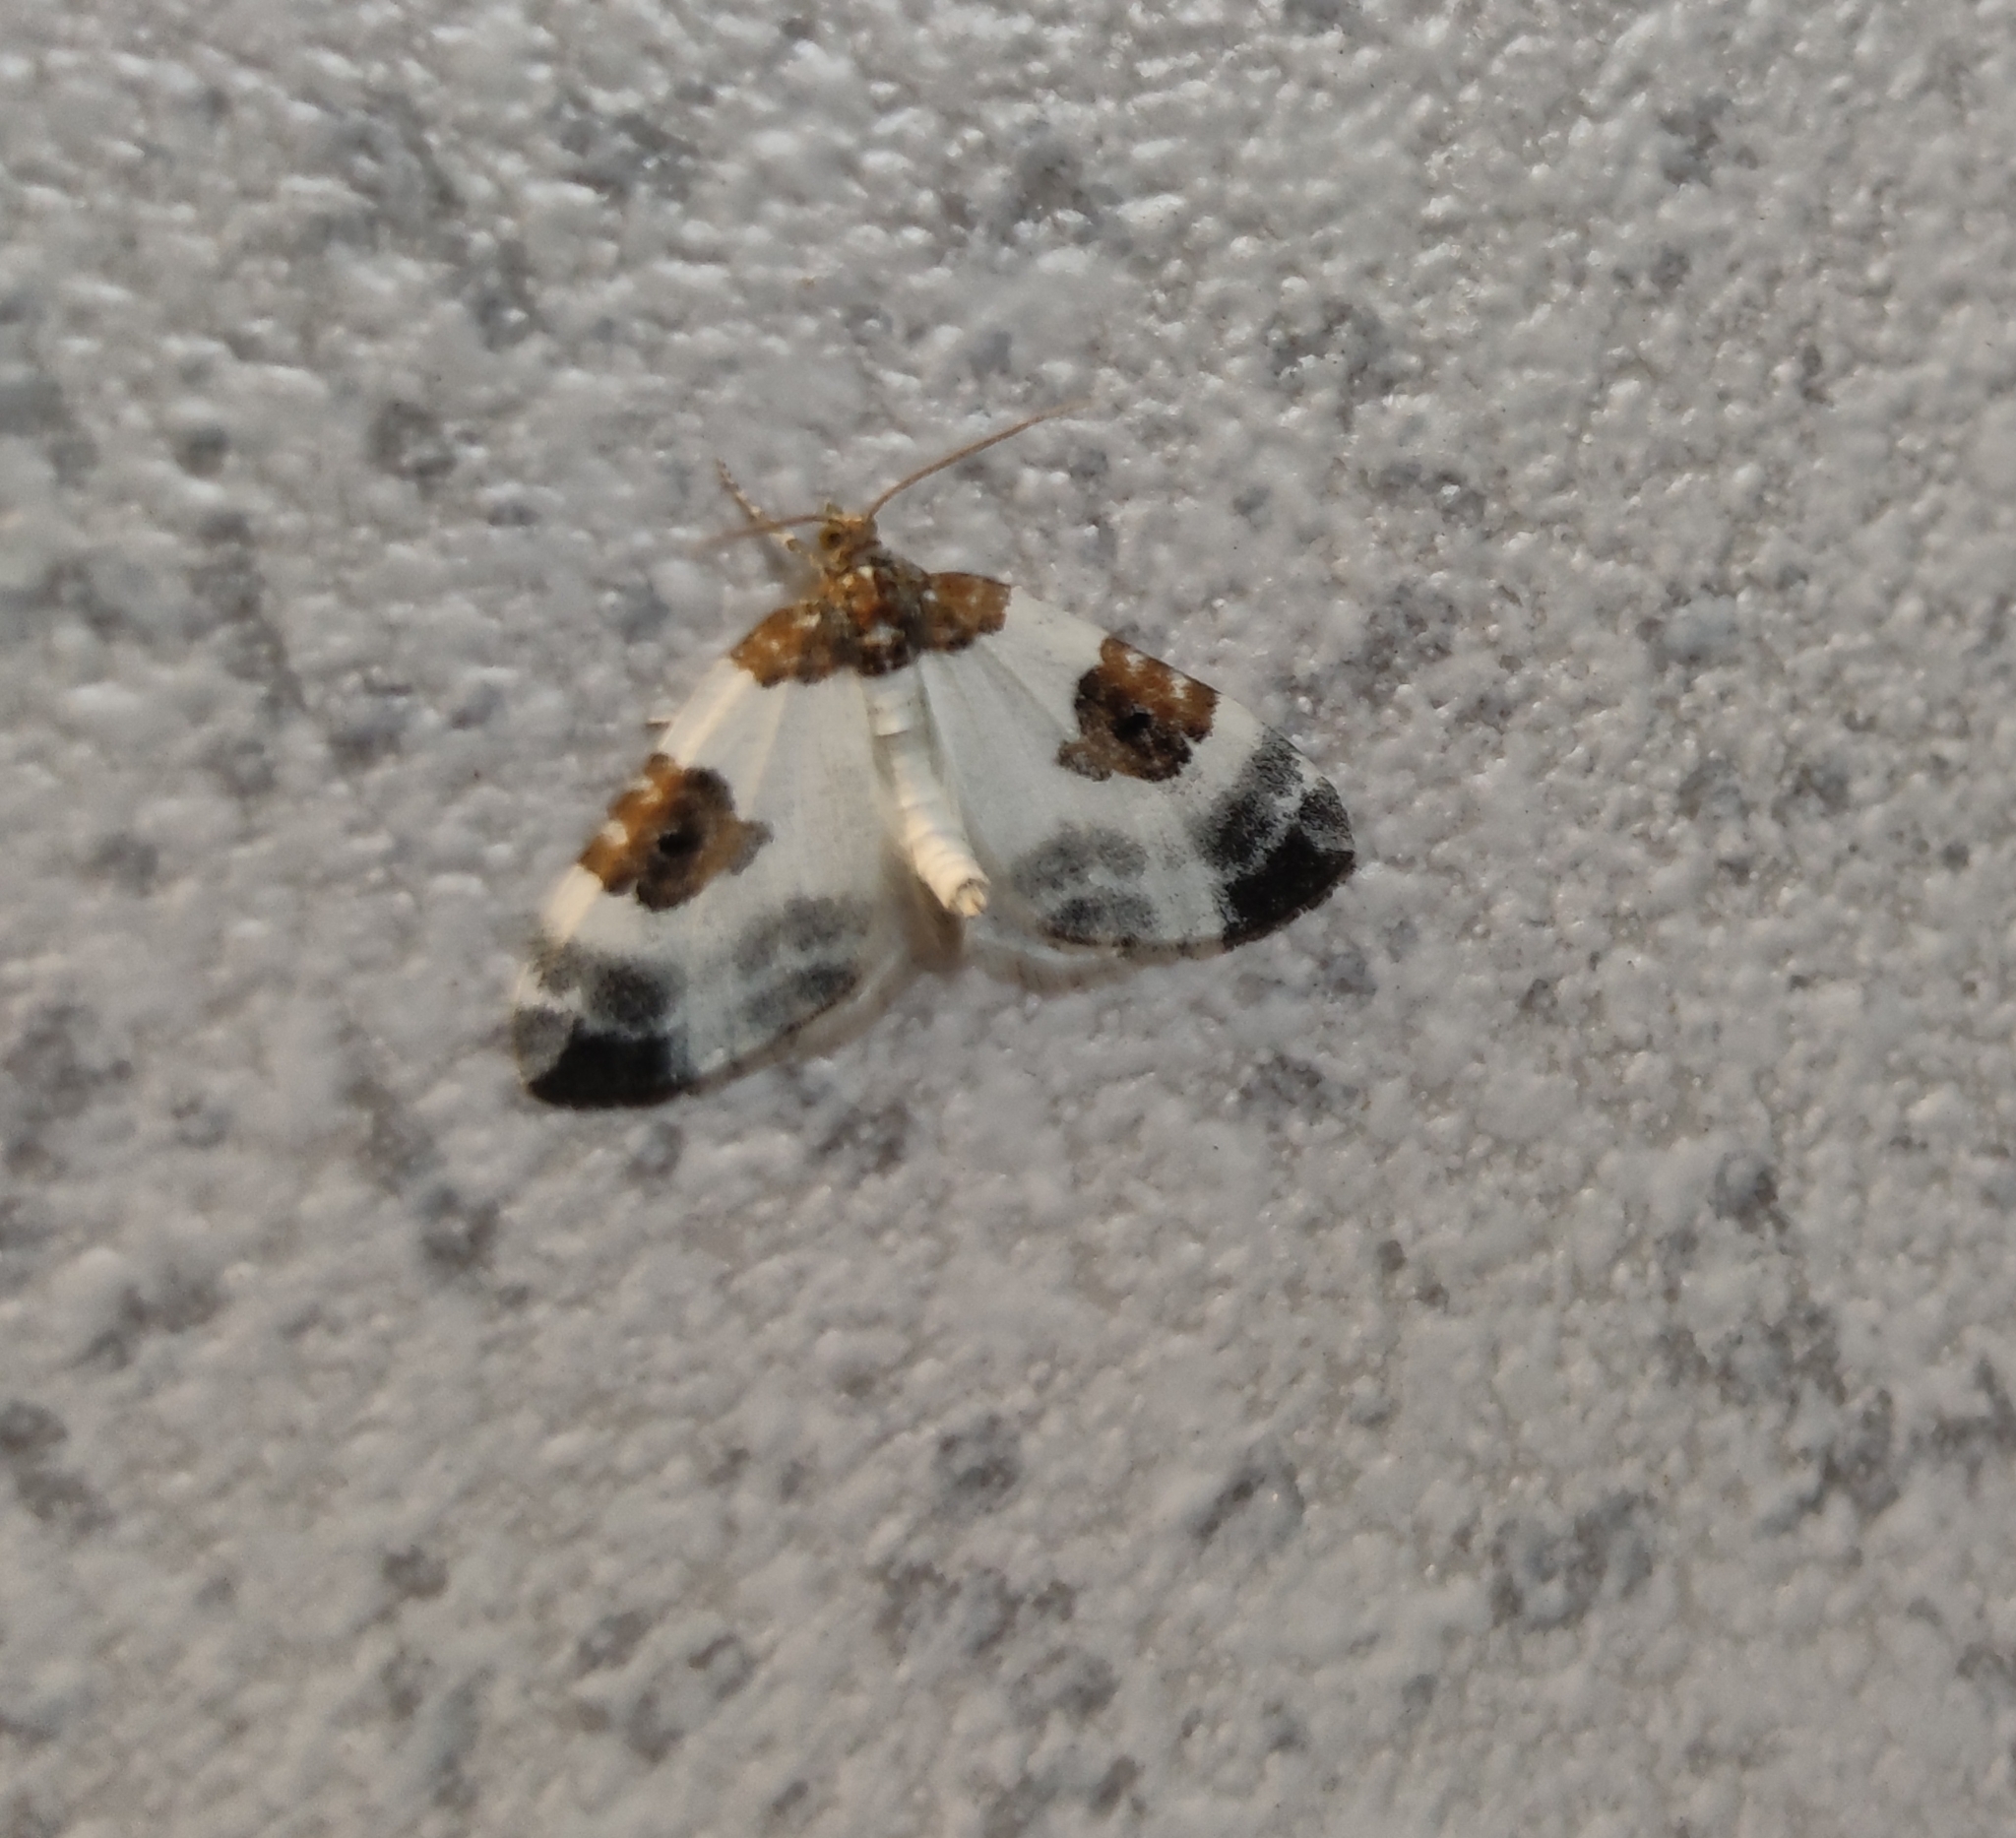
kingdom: Animalia
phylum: Arthropoda
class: Insecta
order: Lepidoptera
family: Geometridae
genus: Plemyria
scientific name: Plemyria rubiginata
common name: Blue-bordered carpet
